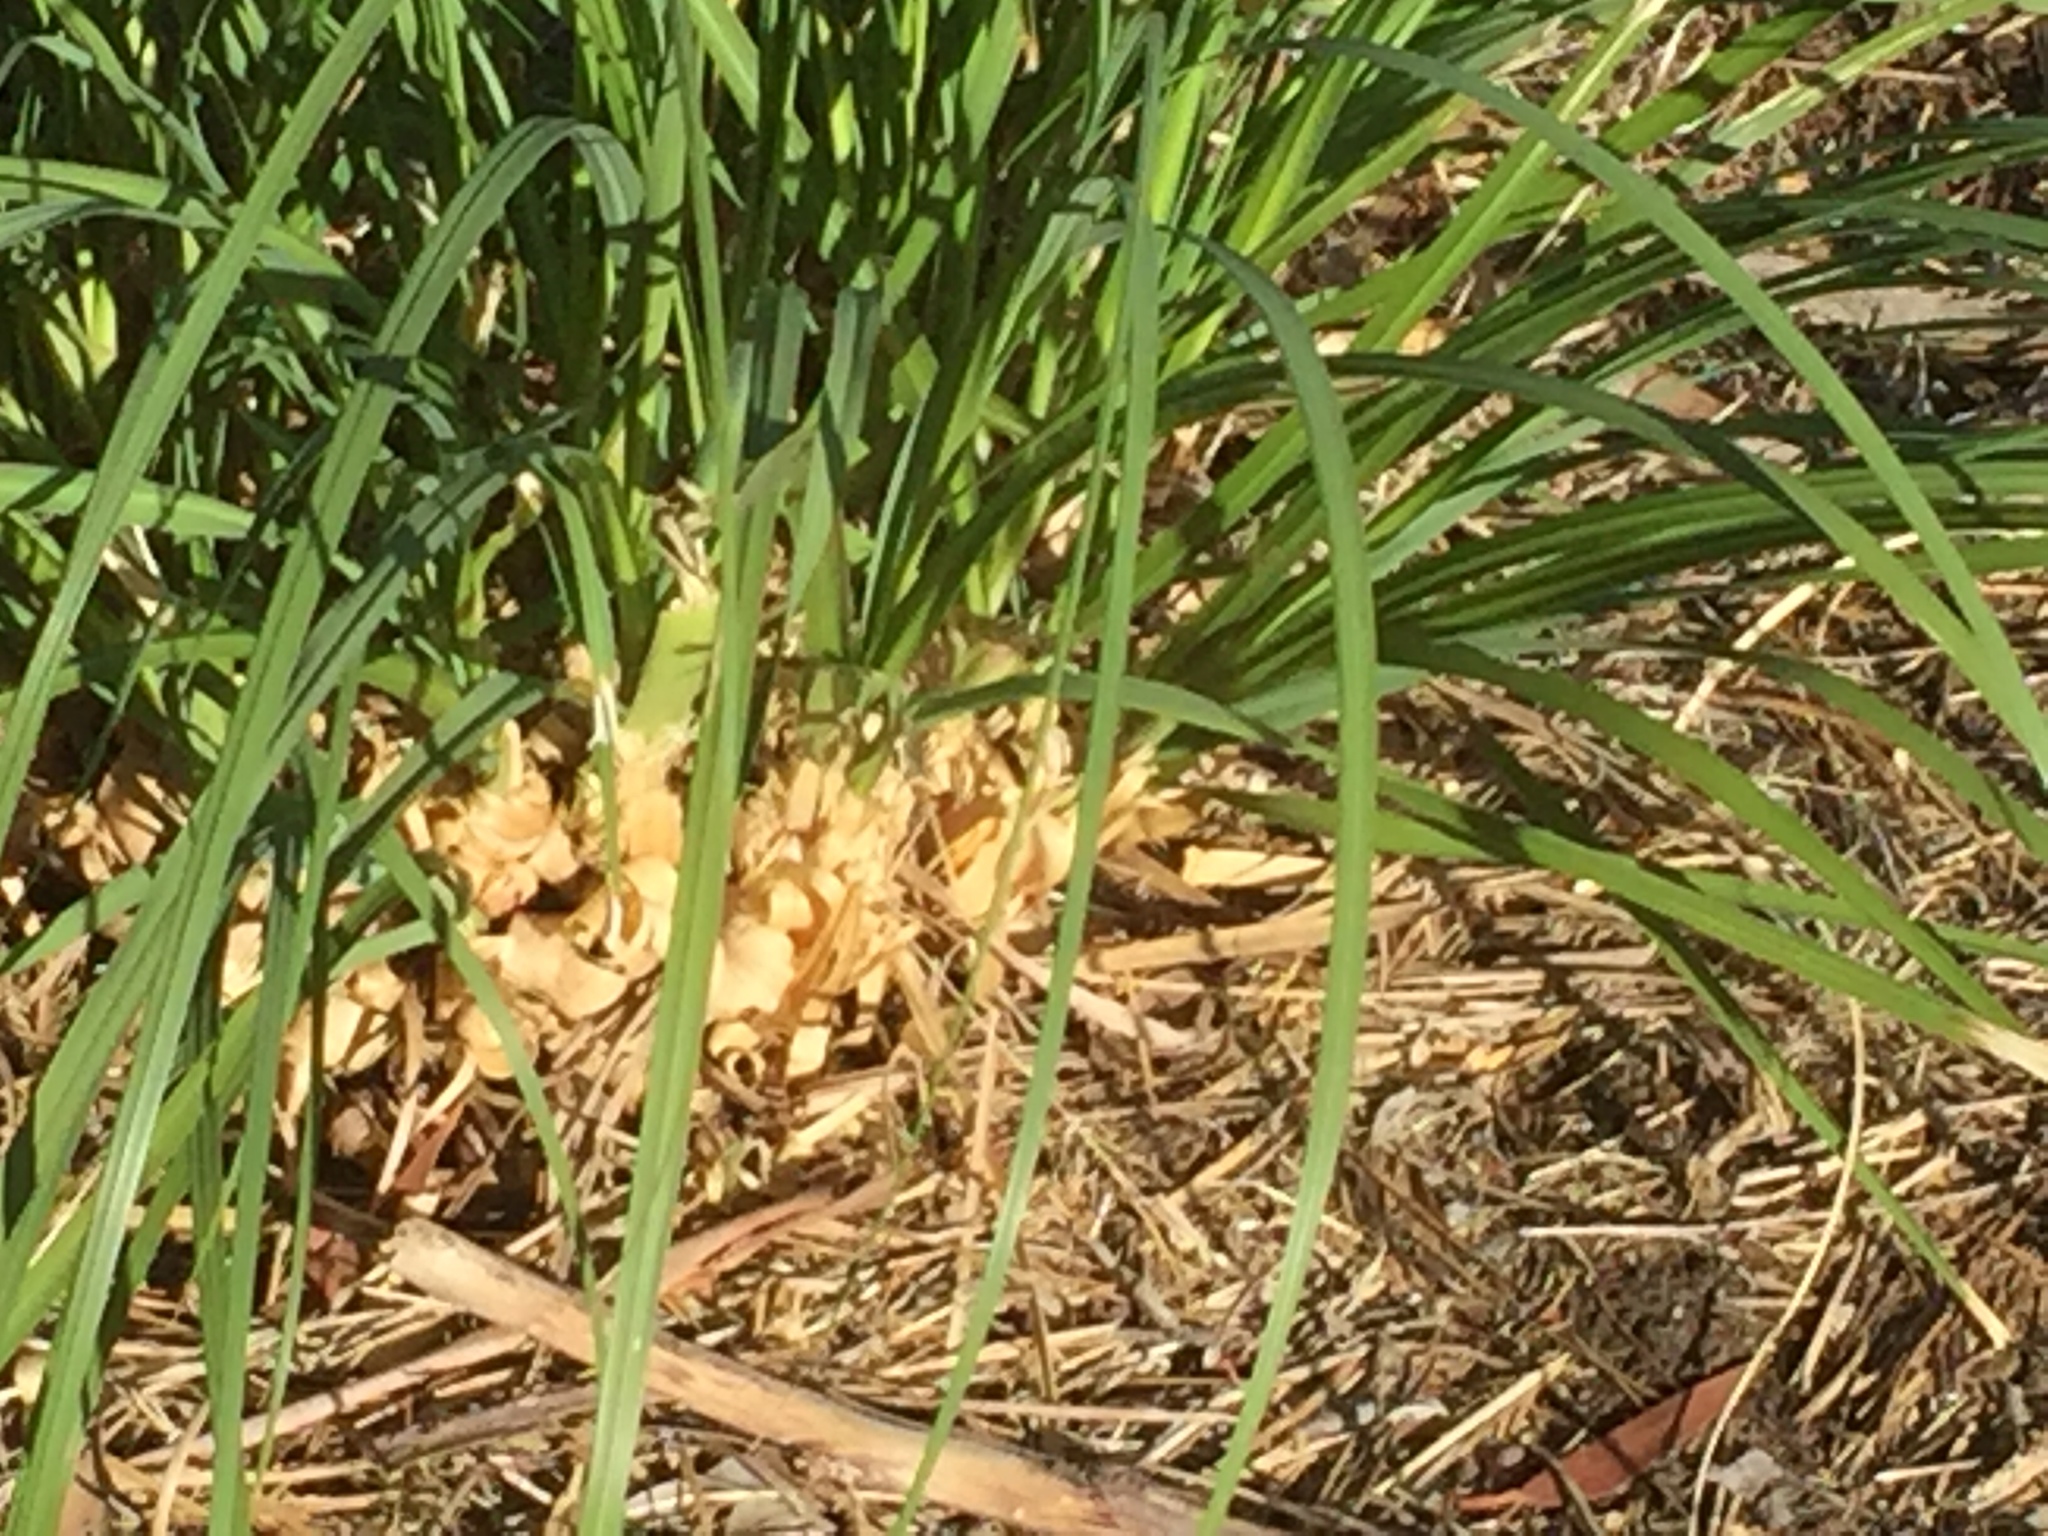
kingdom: Plantae
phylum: Tracheophyta
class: Liliopsida
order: Poales
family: Poaceae
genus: Cortaderia
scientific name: Cortaderia selloana
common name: Uruguayan pampas grass
